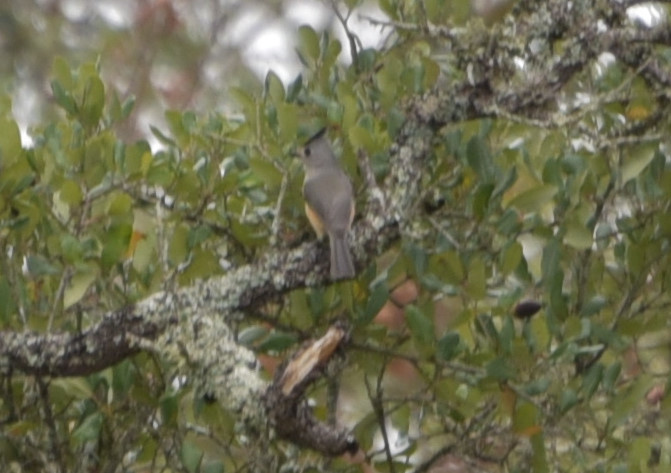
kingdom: Animalia
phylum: Chordata
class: Aves
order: Passeriformes
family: Paridae
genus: Baeolophus
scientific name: Baeolophus atricristatus
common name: Black-crested titmouse
